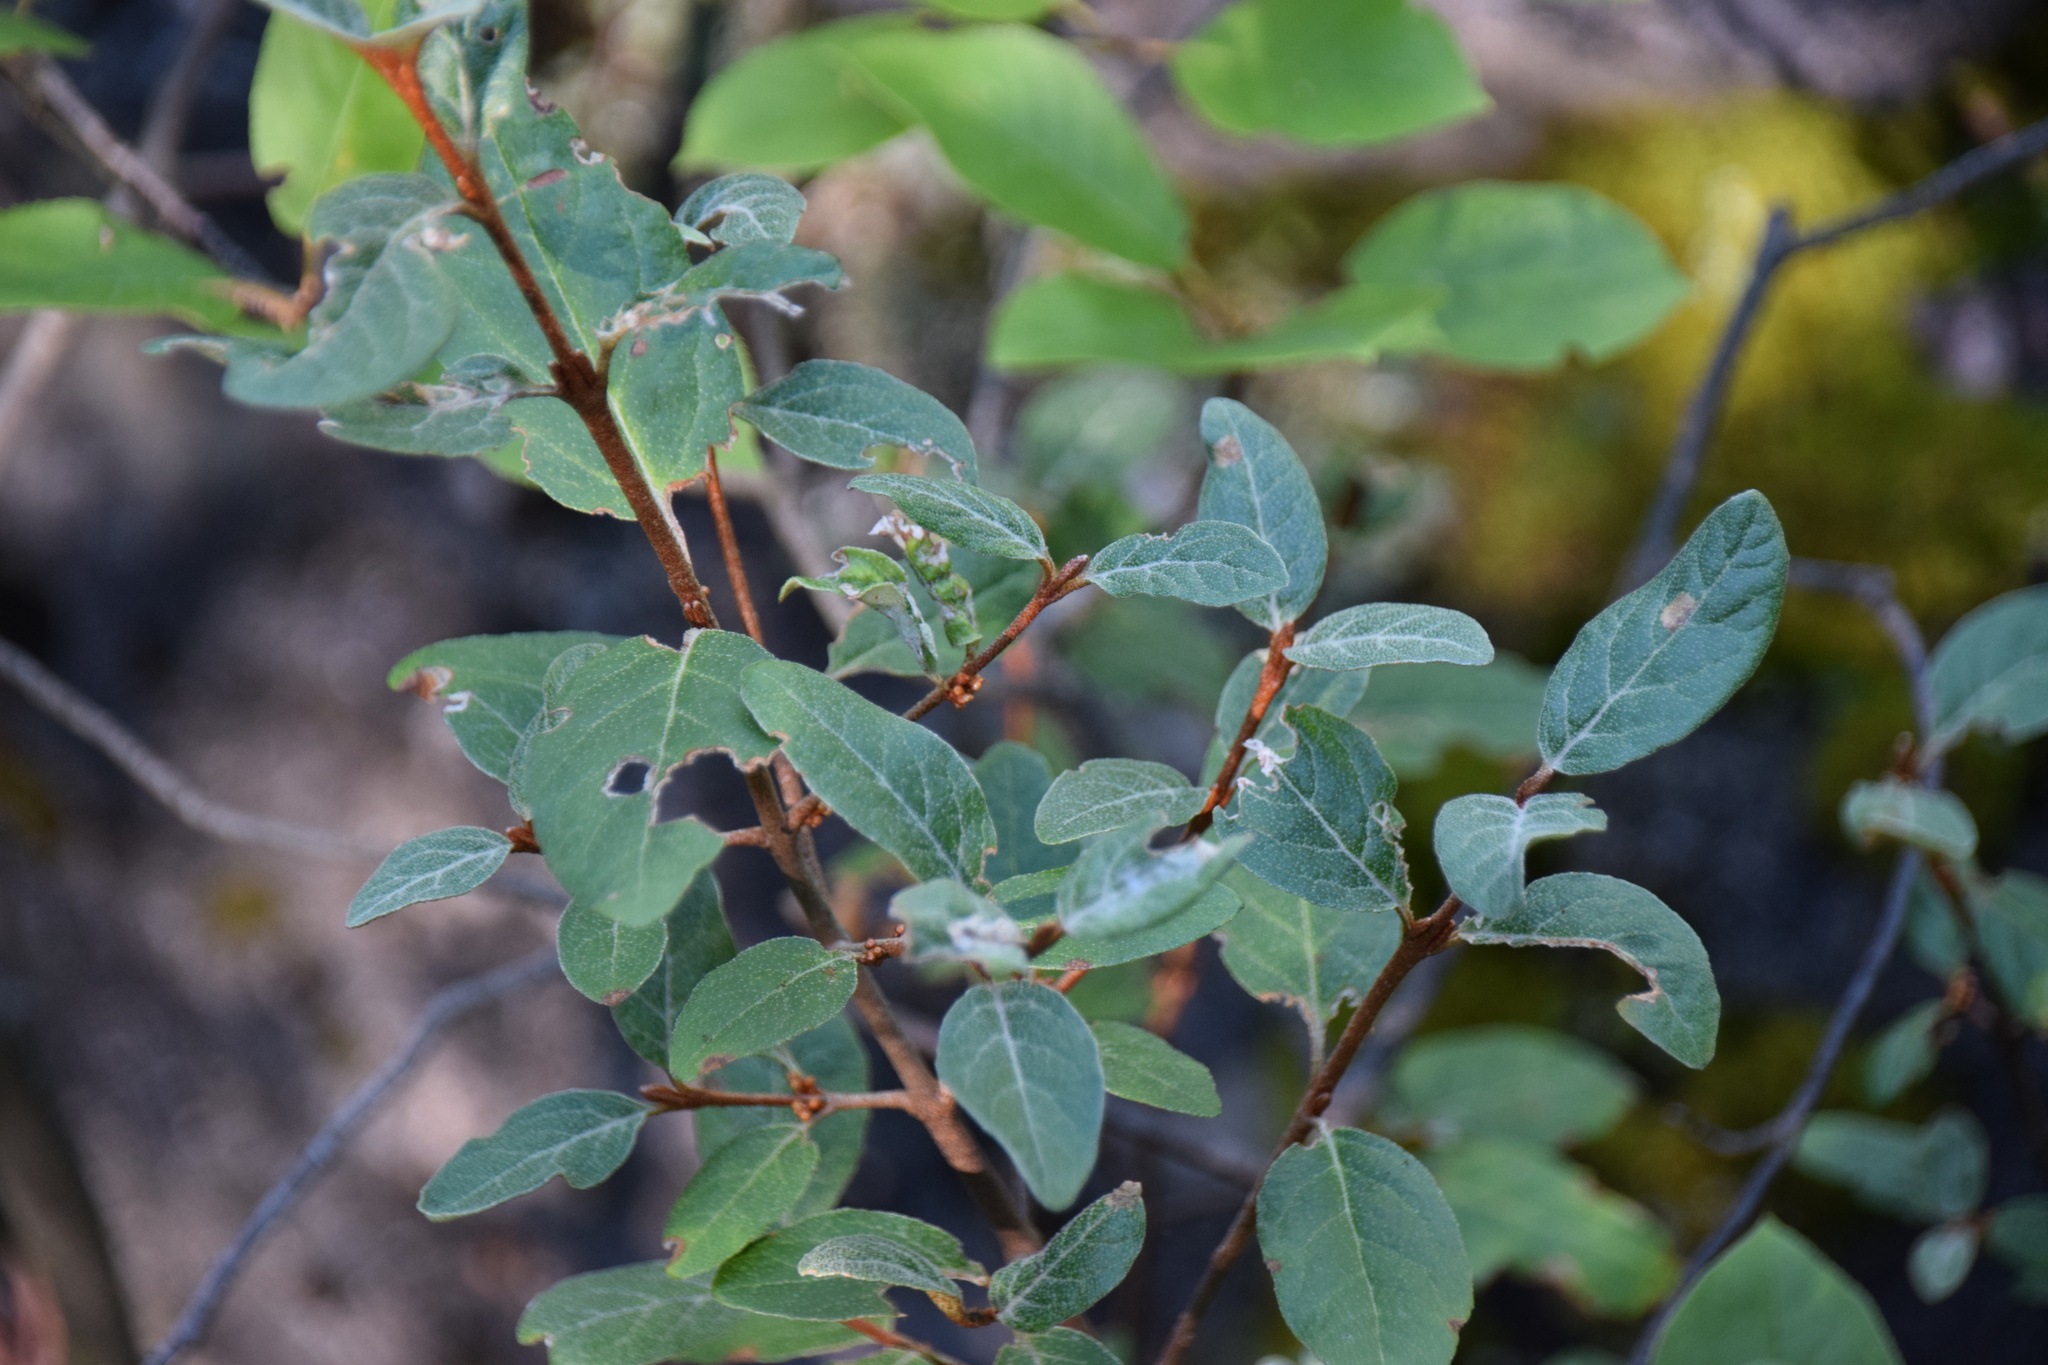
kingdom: Plantae
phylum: Tracheophyta
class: Magnoliopsida
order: Rosales
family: Elaeagnaceae
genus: Shepherdia
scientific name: Shepherdia canadensis
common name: Soapberry
